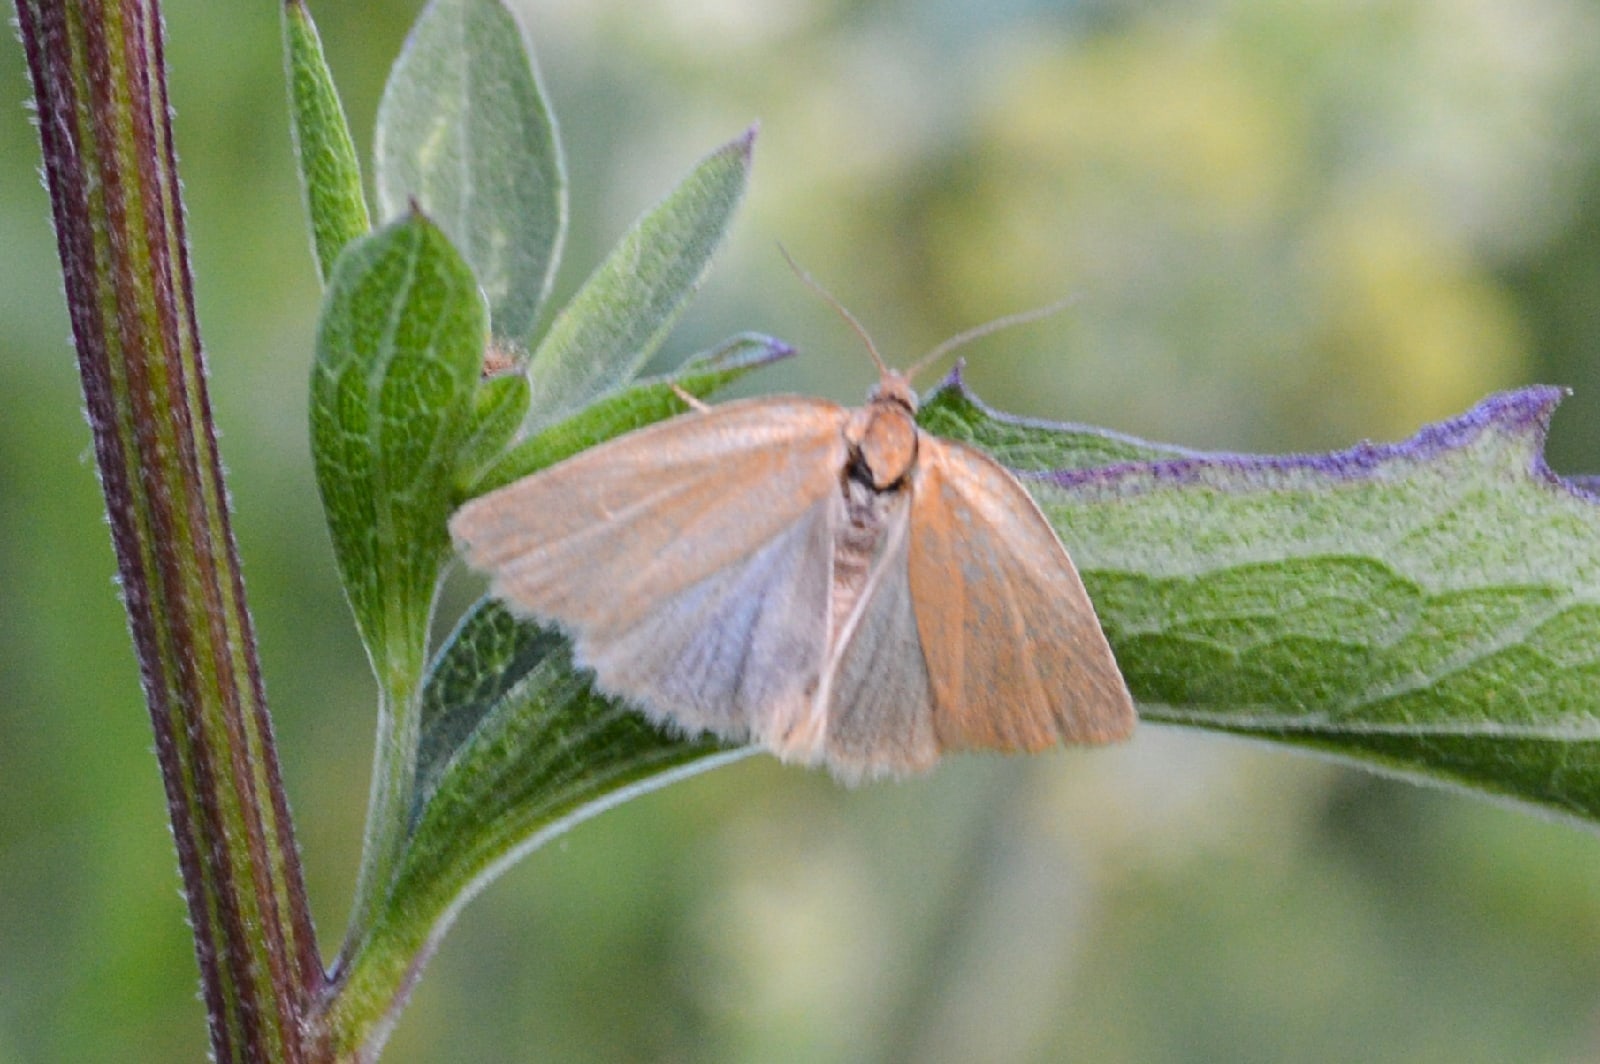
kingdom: Animalia
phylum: Arthropoda
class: Insecta
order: Lepidoptera
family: Tortricidae
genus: Aphelia
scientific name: Aphelia viburnana
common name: Bilberry tortrix
